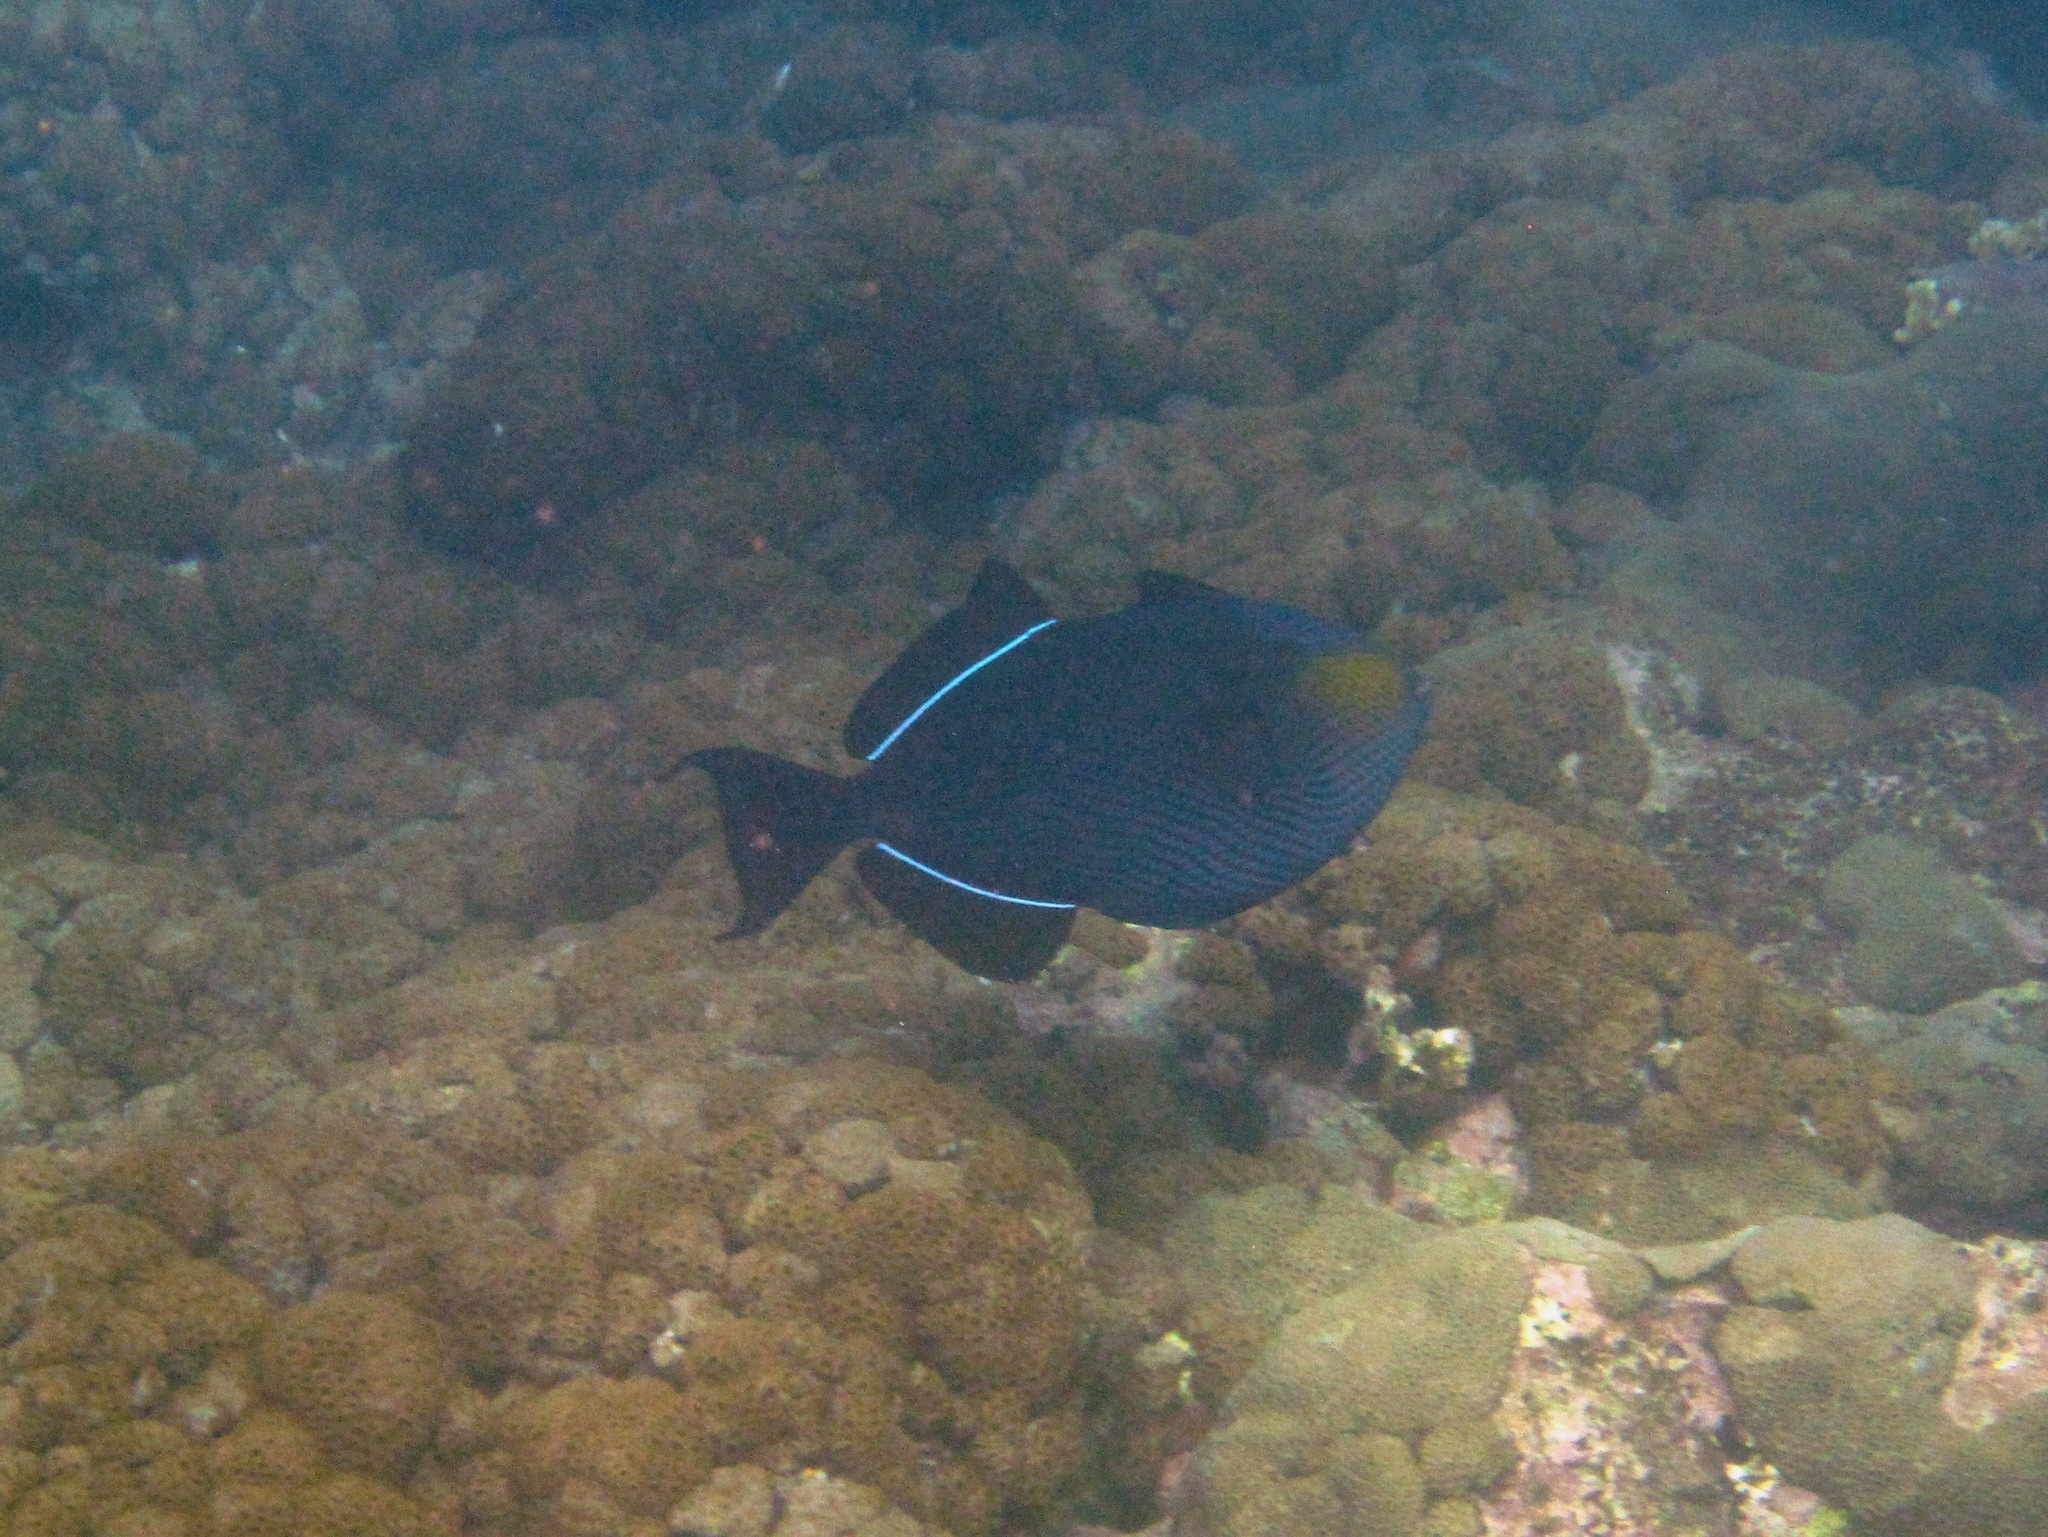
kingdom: Animalia
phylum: Chordata
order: Tetraodontiformes
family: Balistidae
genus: Melichthys
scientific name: Melichthys niger
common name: Black durgon
